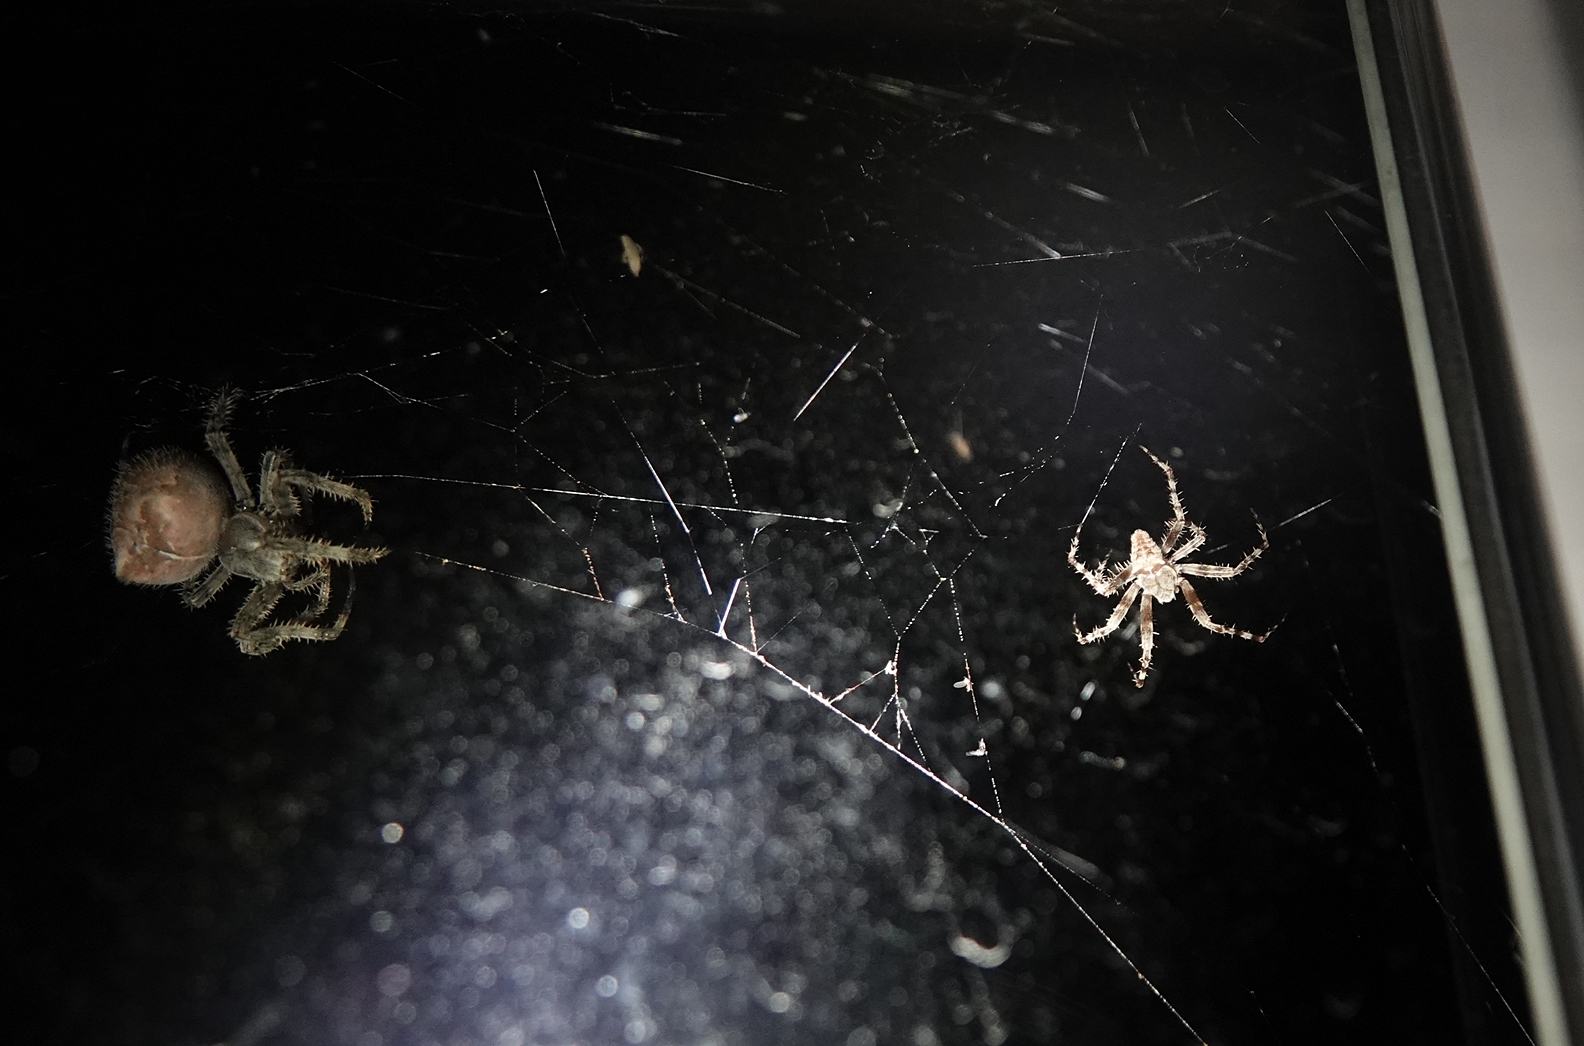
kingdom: Animalia
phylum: Arthropoda
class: Arachnida
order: Araneae
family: Araneidae
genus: Araneus
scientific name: Araneus gemmoides
